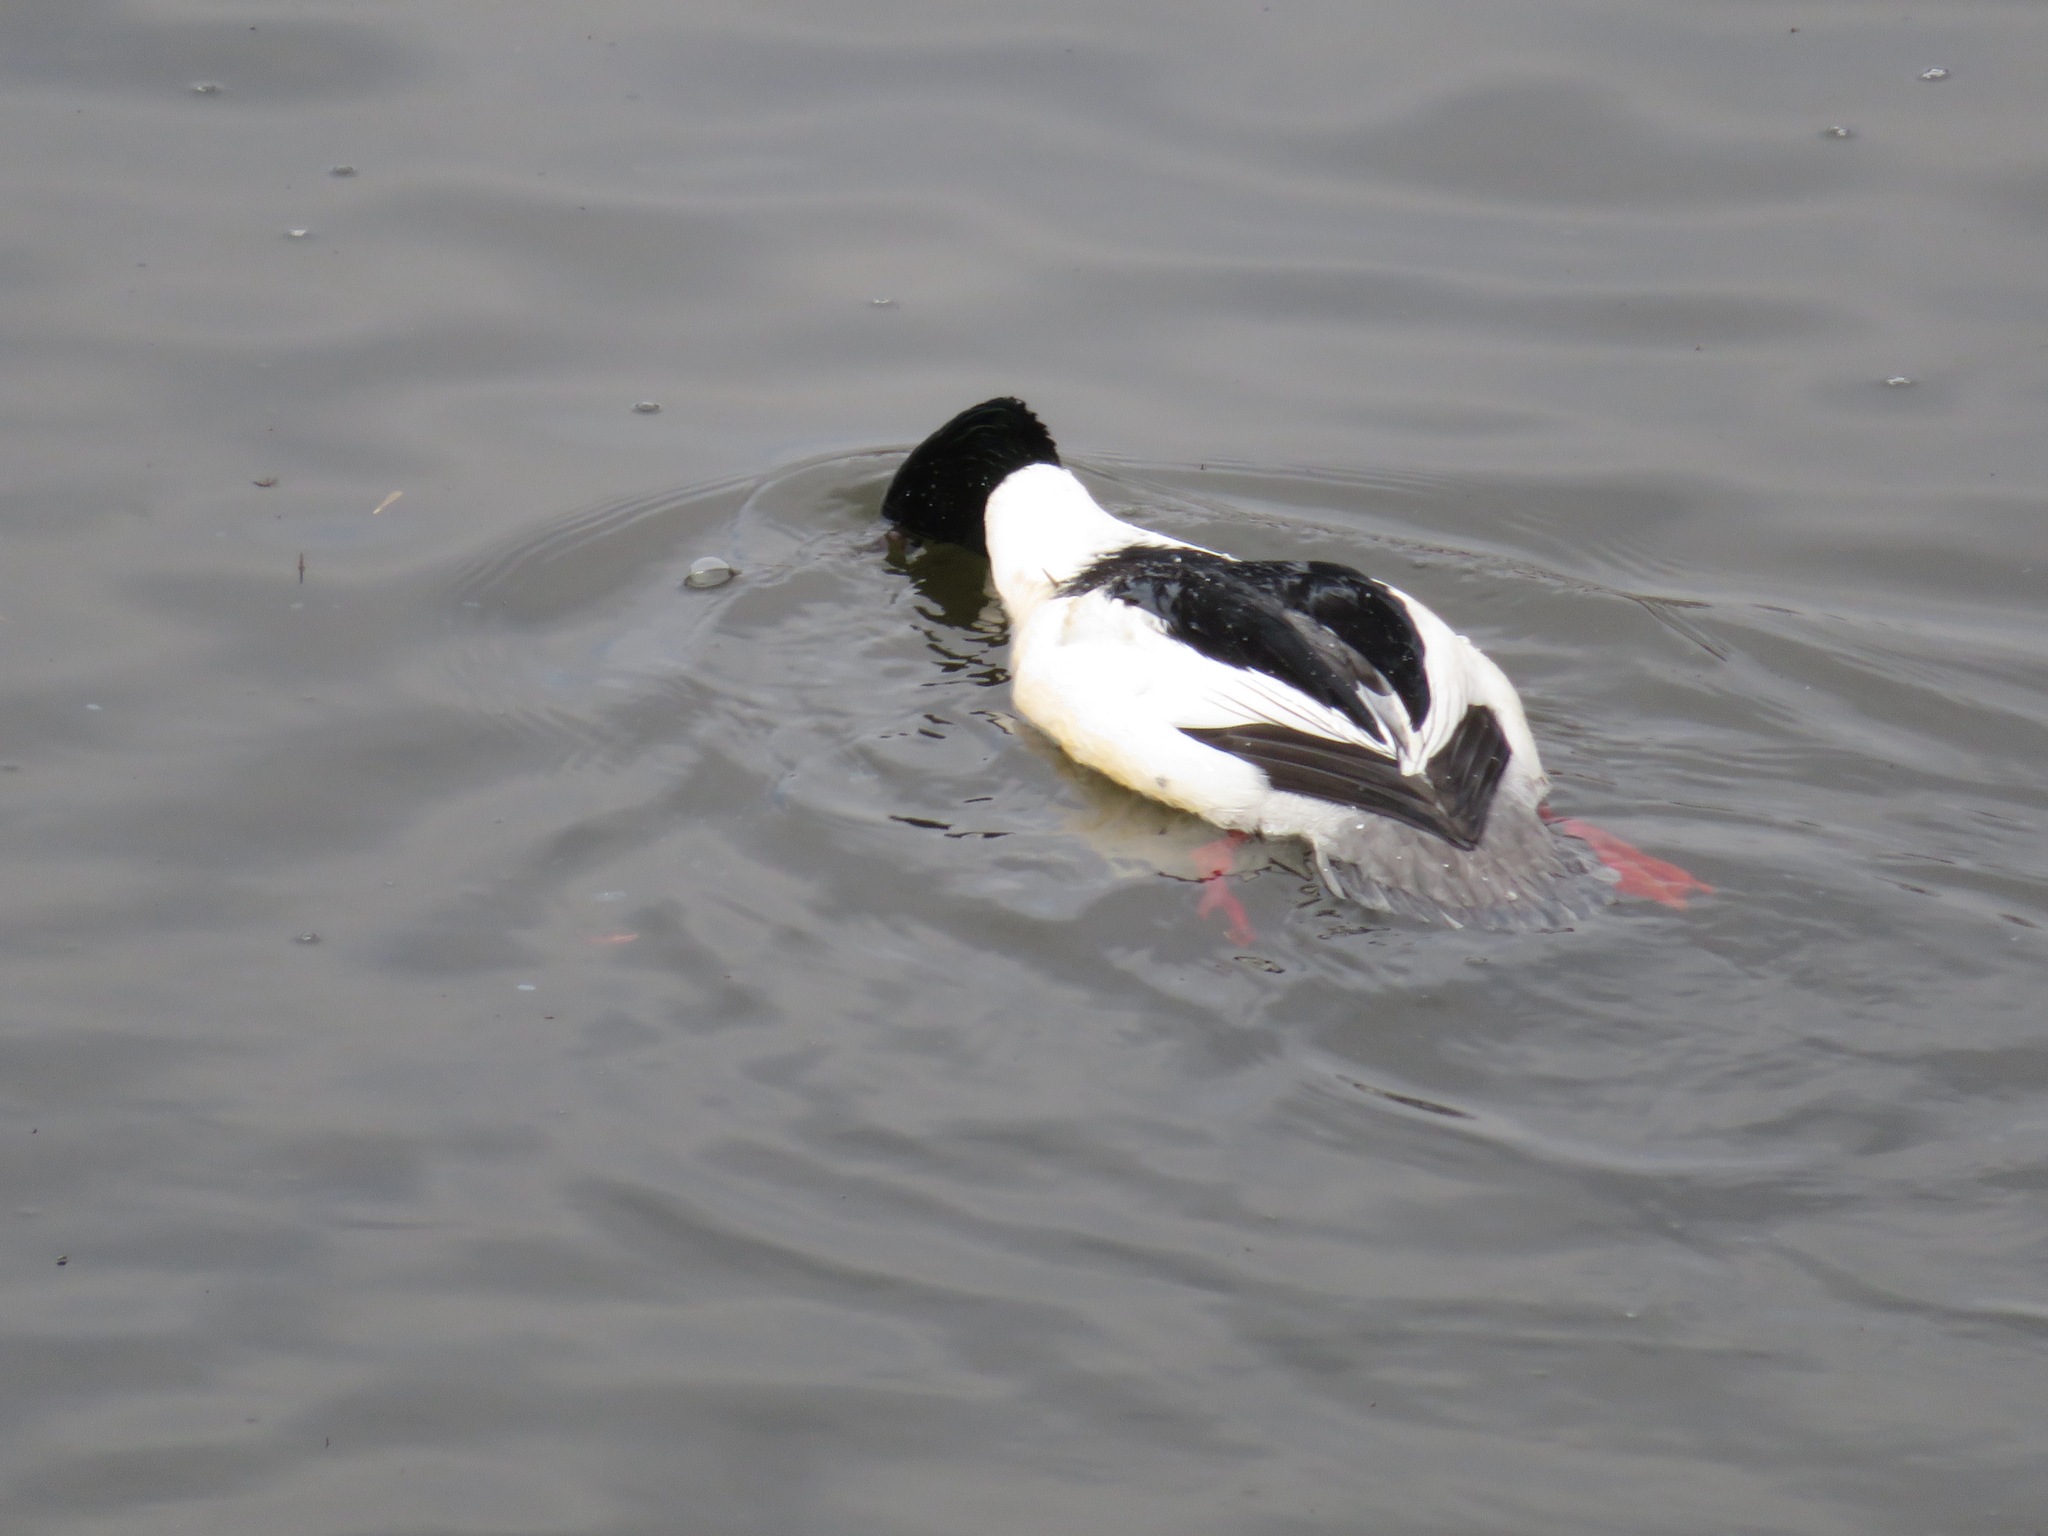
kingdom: Animalia
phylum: Chordata
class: Aves
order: Anseriformes
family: Anatidae
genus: Mergus
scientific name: Mergus merganser
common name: Common merganser
